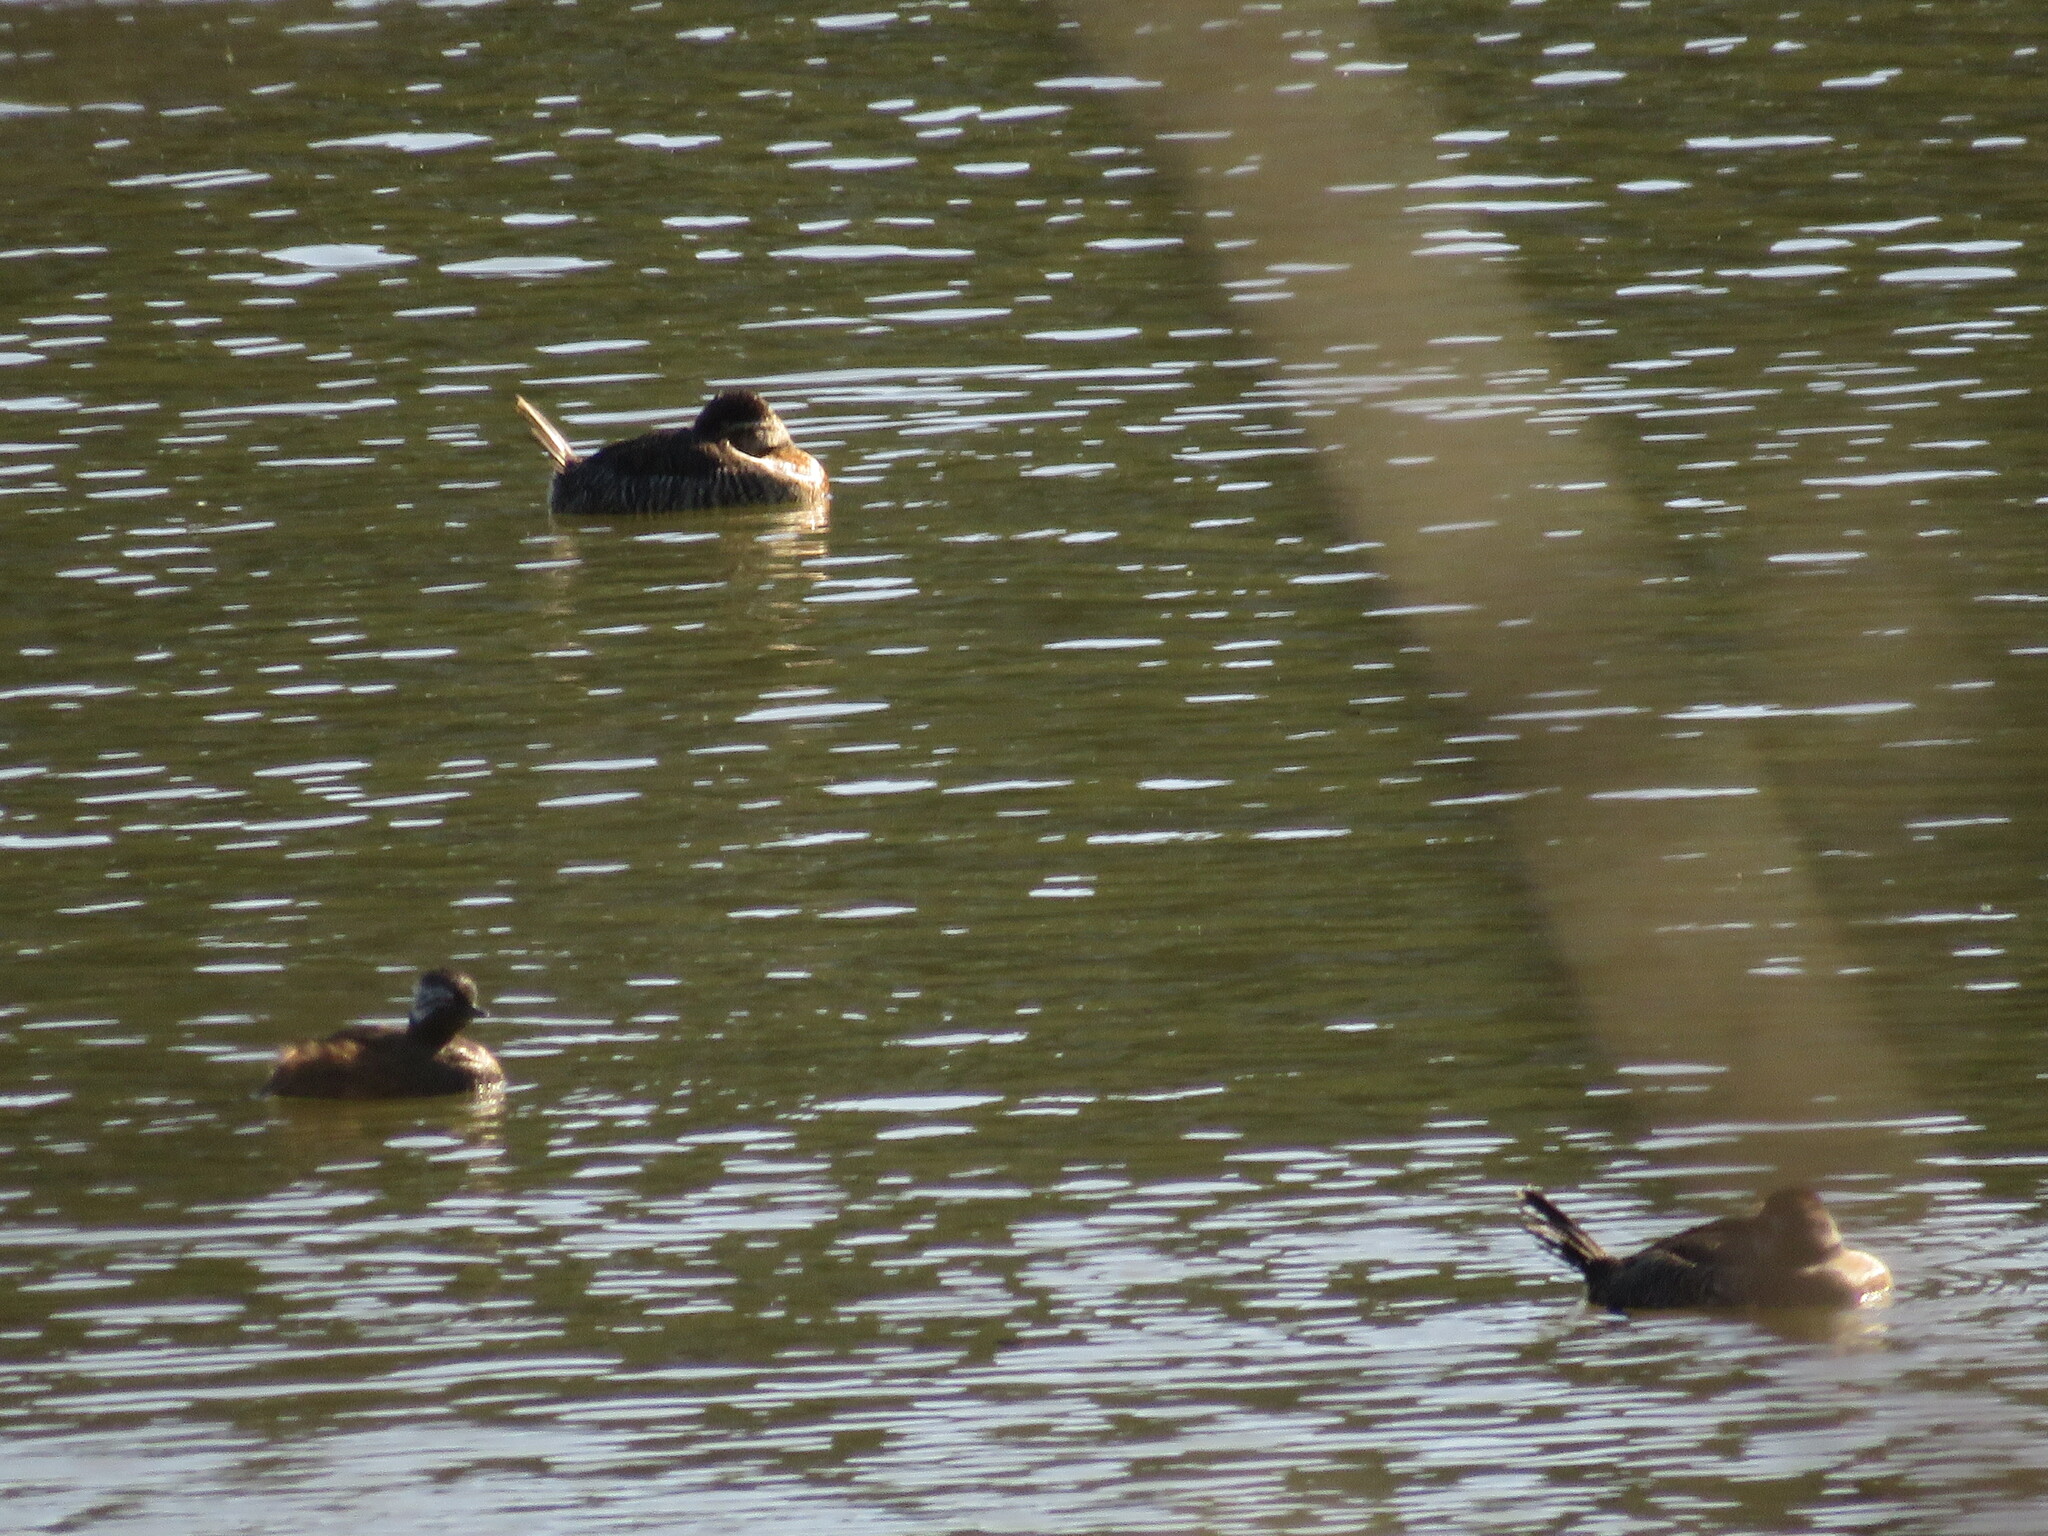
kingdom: Animalia
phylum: Chordata
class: Aves
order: Podicipediformes
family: Podicipedidae
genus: Rollandia
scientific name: Rollandia rolland
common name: White-tufted grebe
